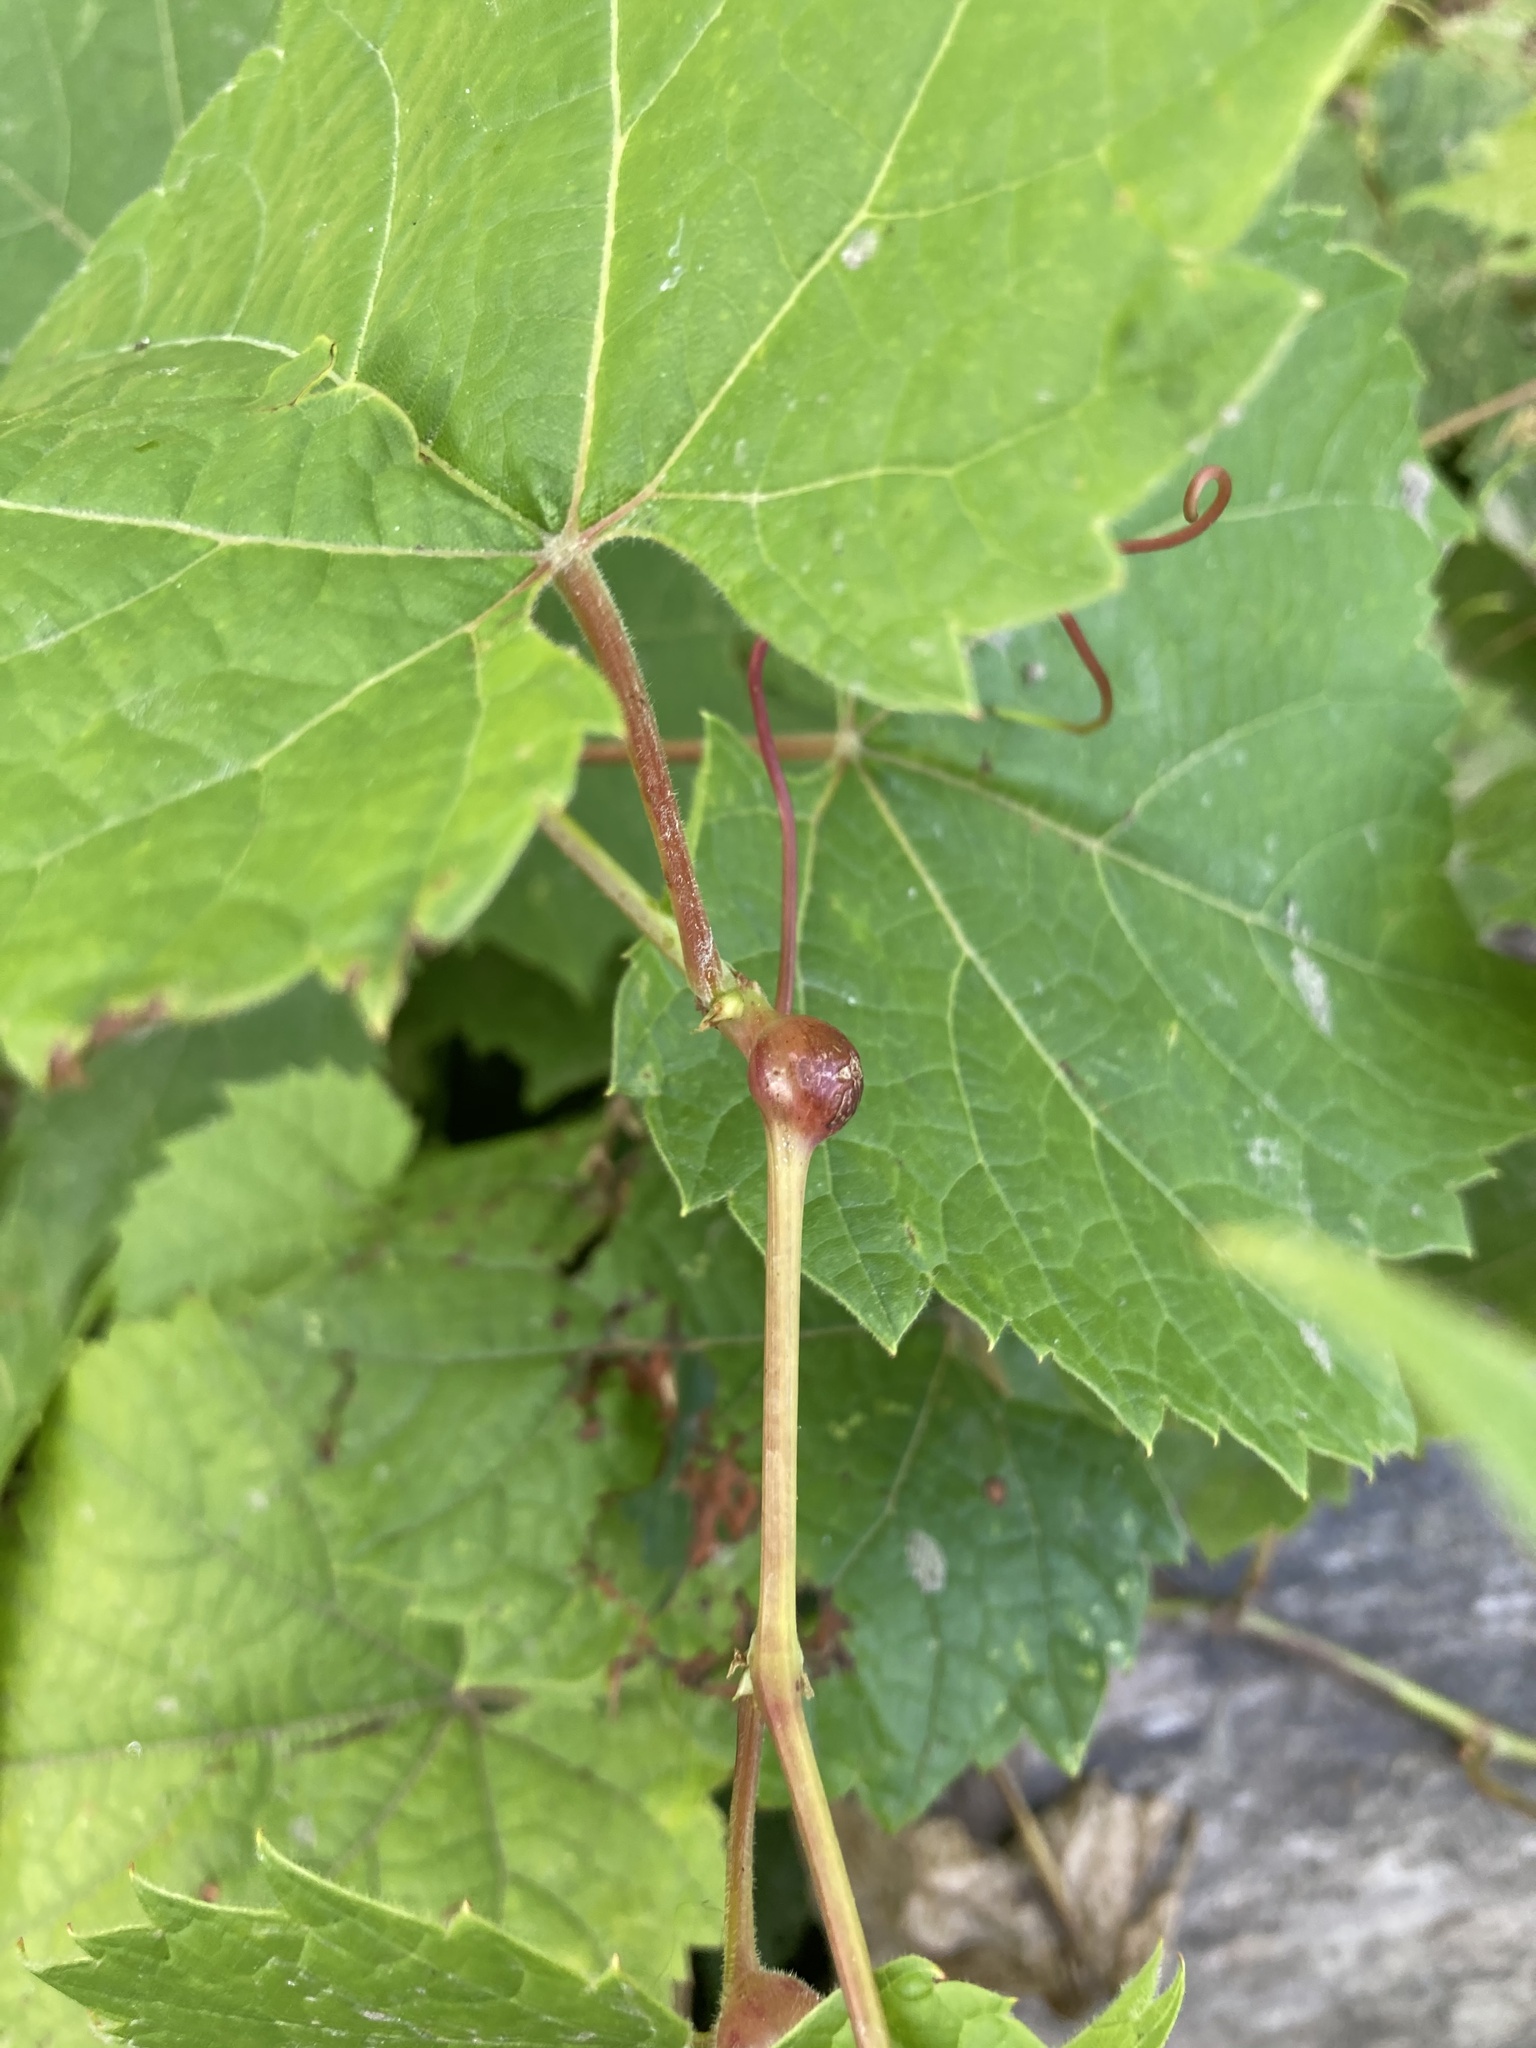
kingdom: Animalia
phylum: Arthropoda
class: Insecta
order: Diptera
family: Cecidomyiidae
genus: Vitisiella
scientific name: Vitisiella brevicauda
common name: Grape tumid gallmaker midge
